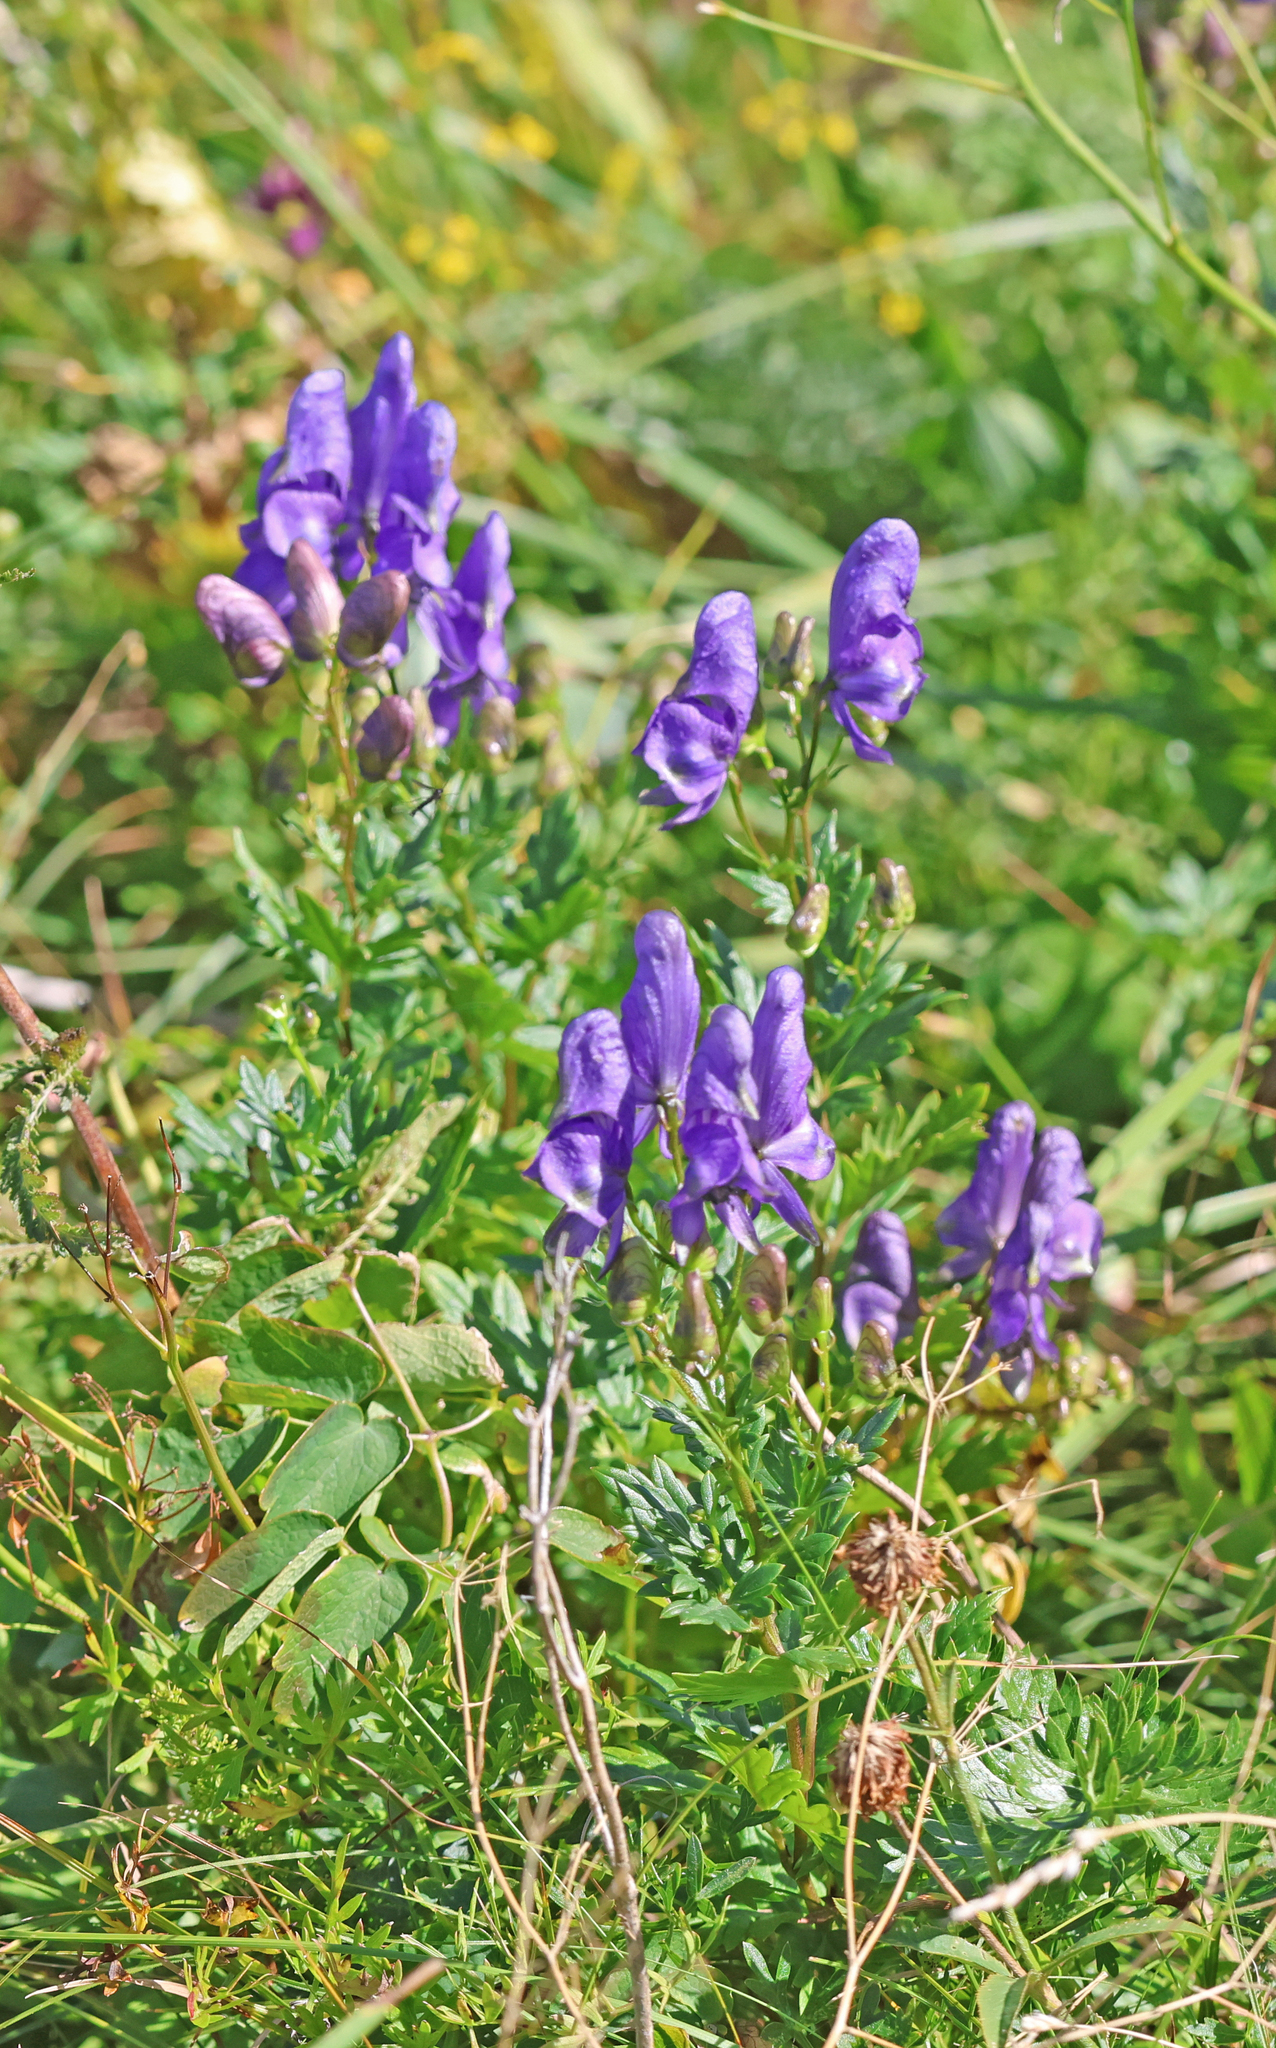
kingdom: Plantae
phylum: Tracheophyta
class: Magnoliopsida
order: Ranunculales
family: Ranunculaceae
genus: Aconitum
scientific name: Aconitum variegatum
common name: Manchurian monkshood
